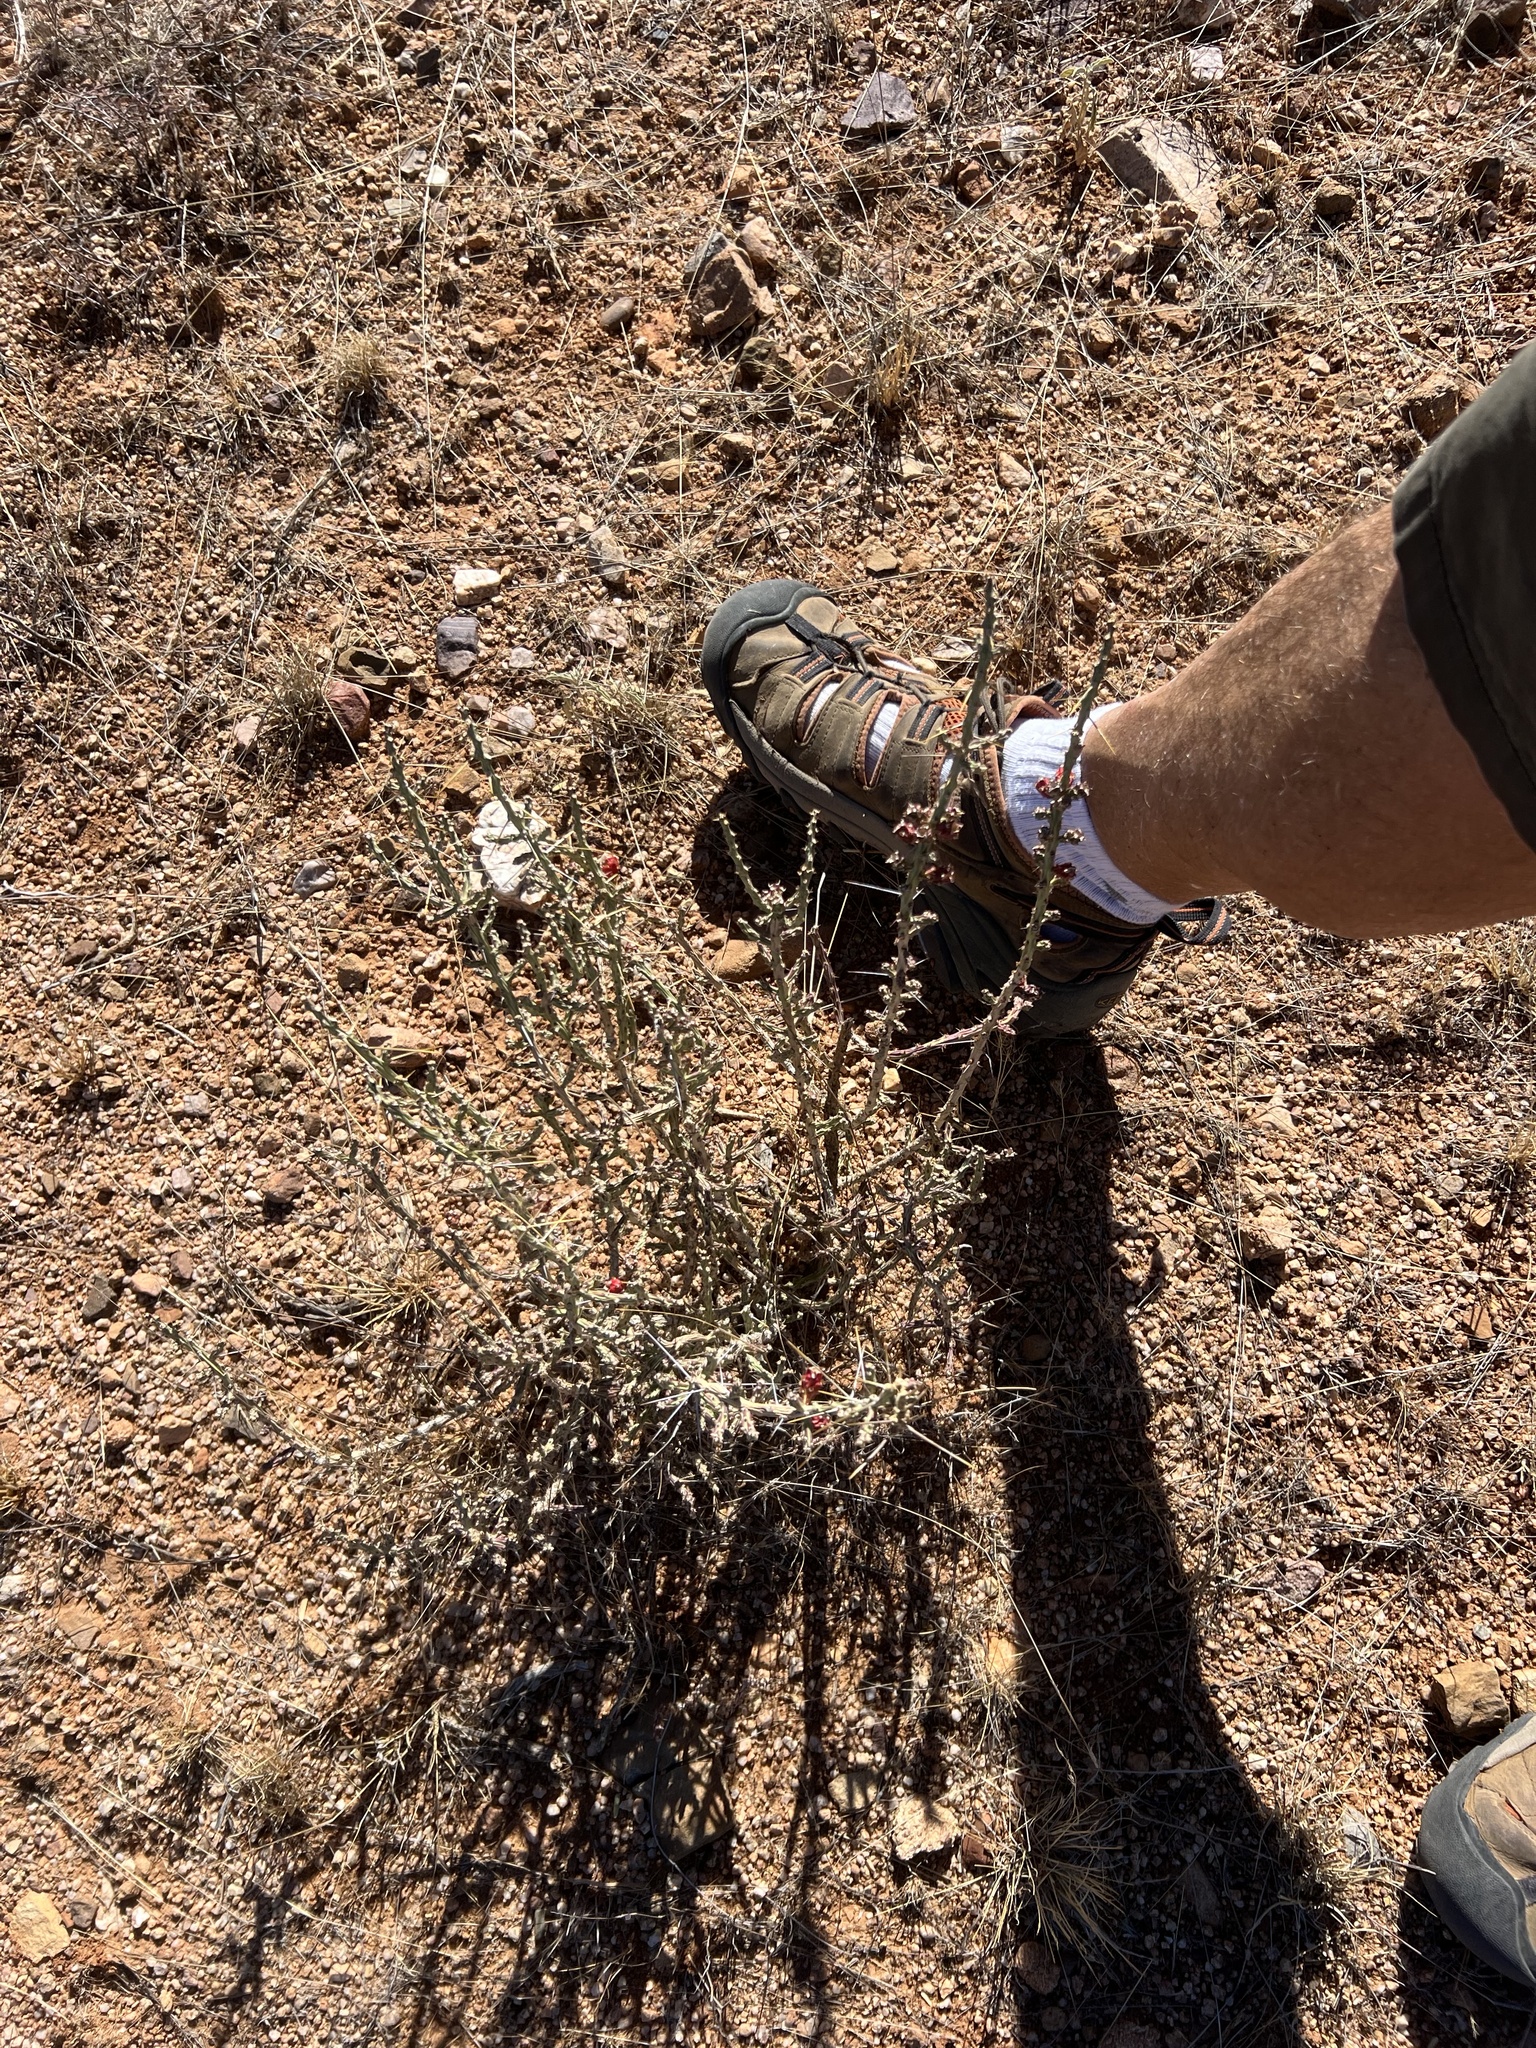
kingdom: Plantae
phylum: Tracheophyta
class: Magnoliopsida
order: Caryophyllales
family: Cactaceae
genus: Cylindropuntia
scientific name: Cylindropuntia leptocaulis
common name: Christmas cactus
